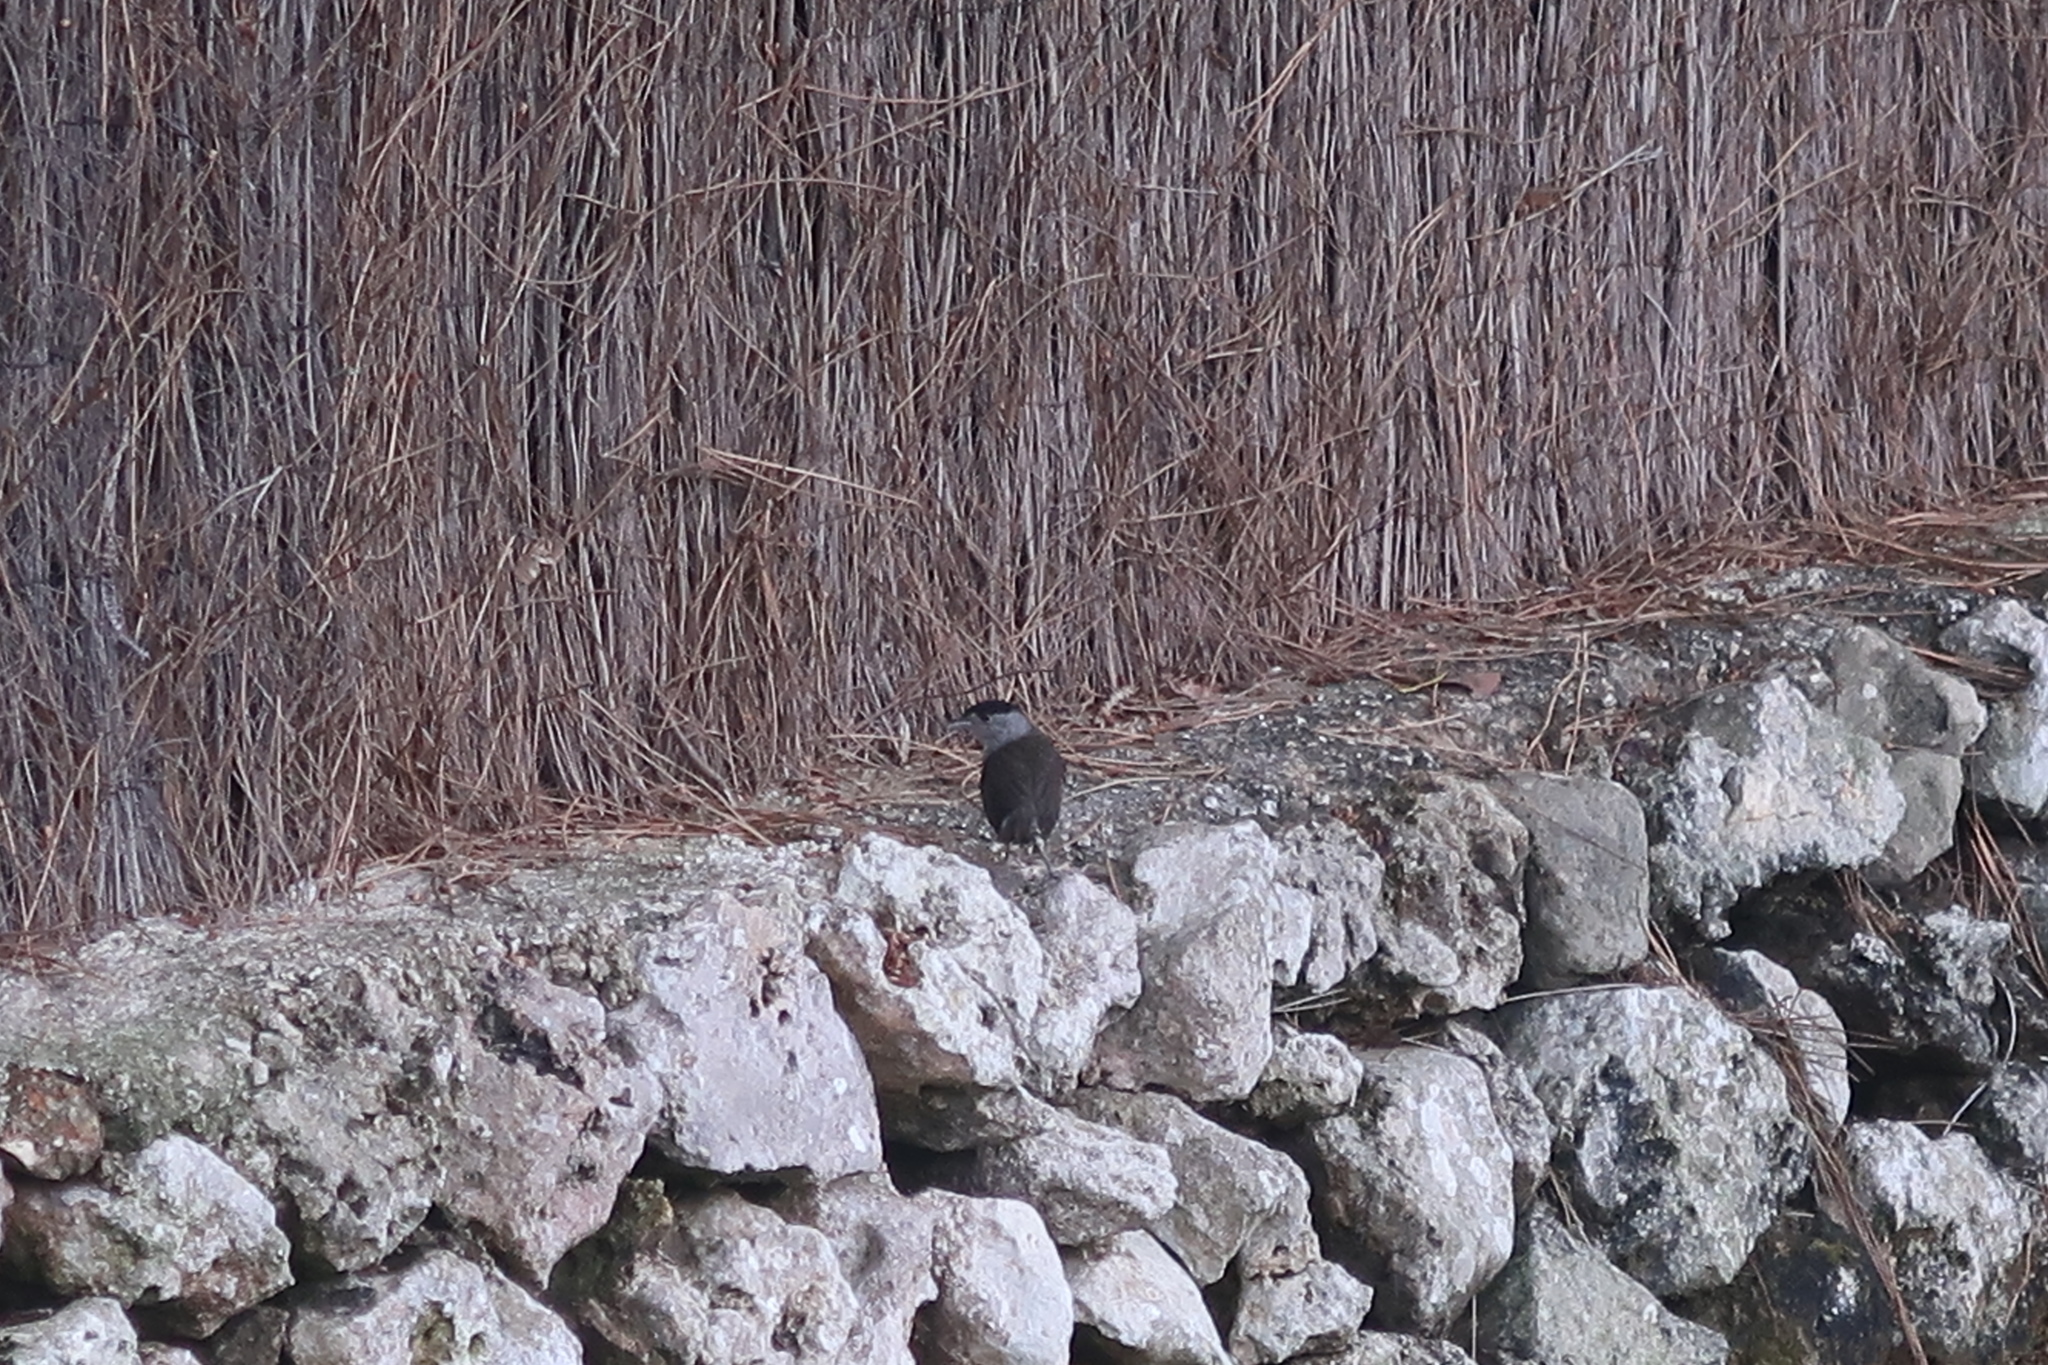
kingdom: Animalia
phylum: Chordata
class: Aves
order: Passeriformes
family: Sylviidae
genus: Sylvia
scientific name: Sylvia atricapilla
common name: Eurasian blackcap
